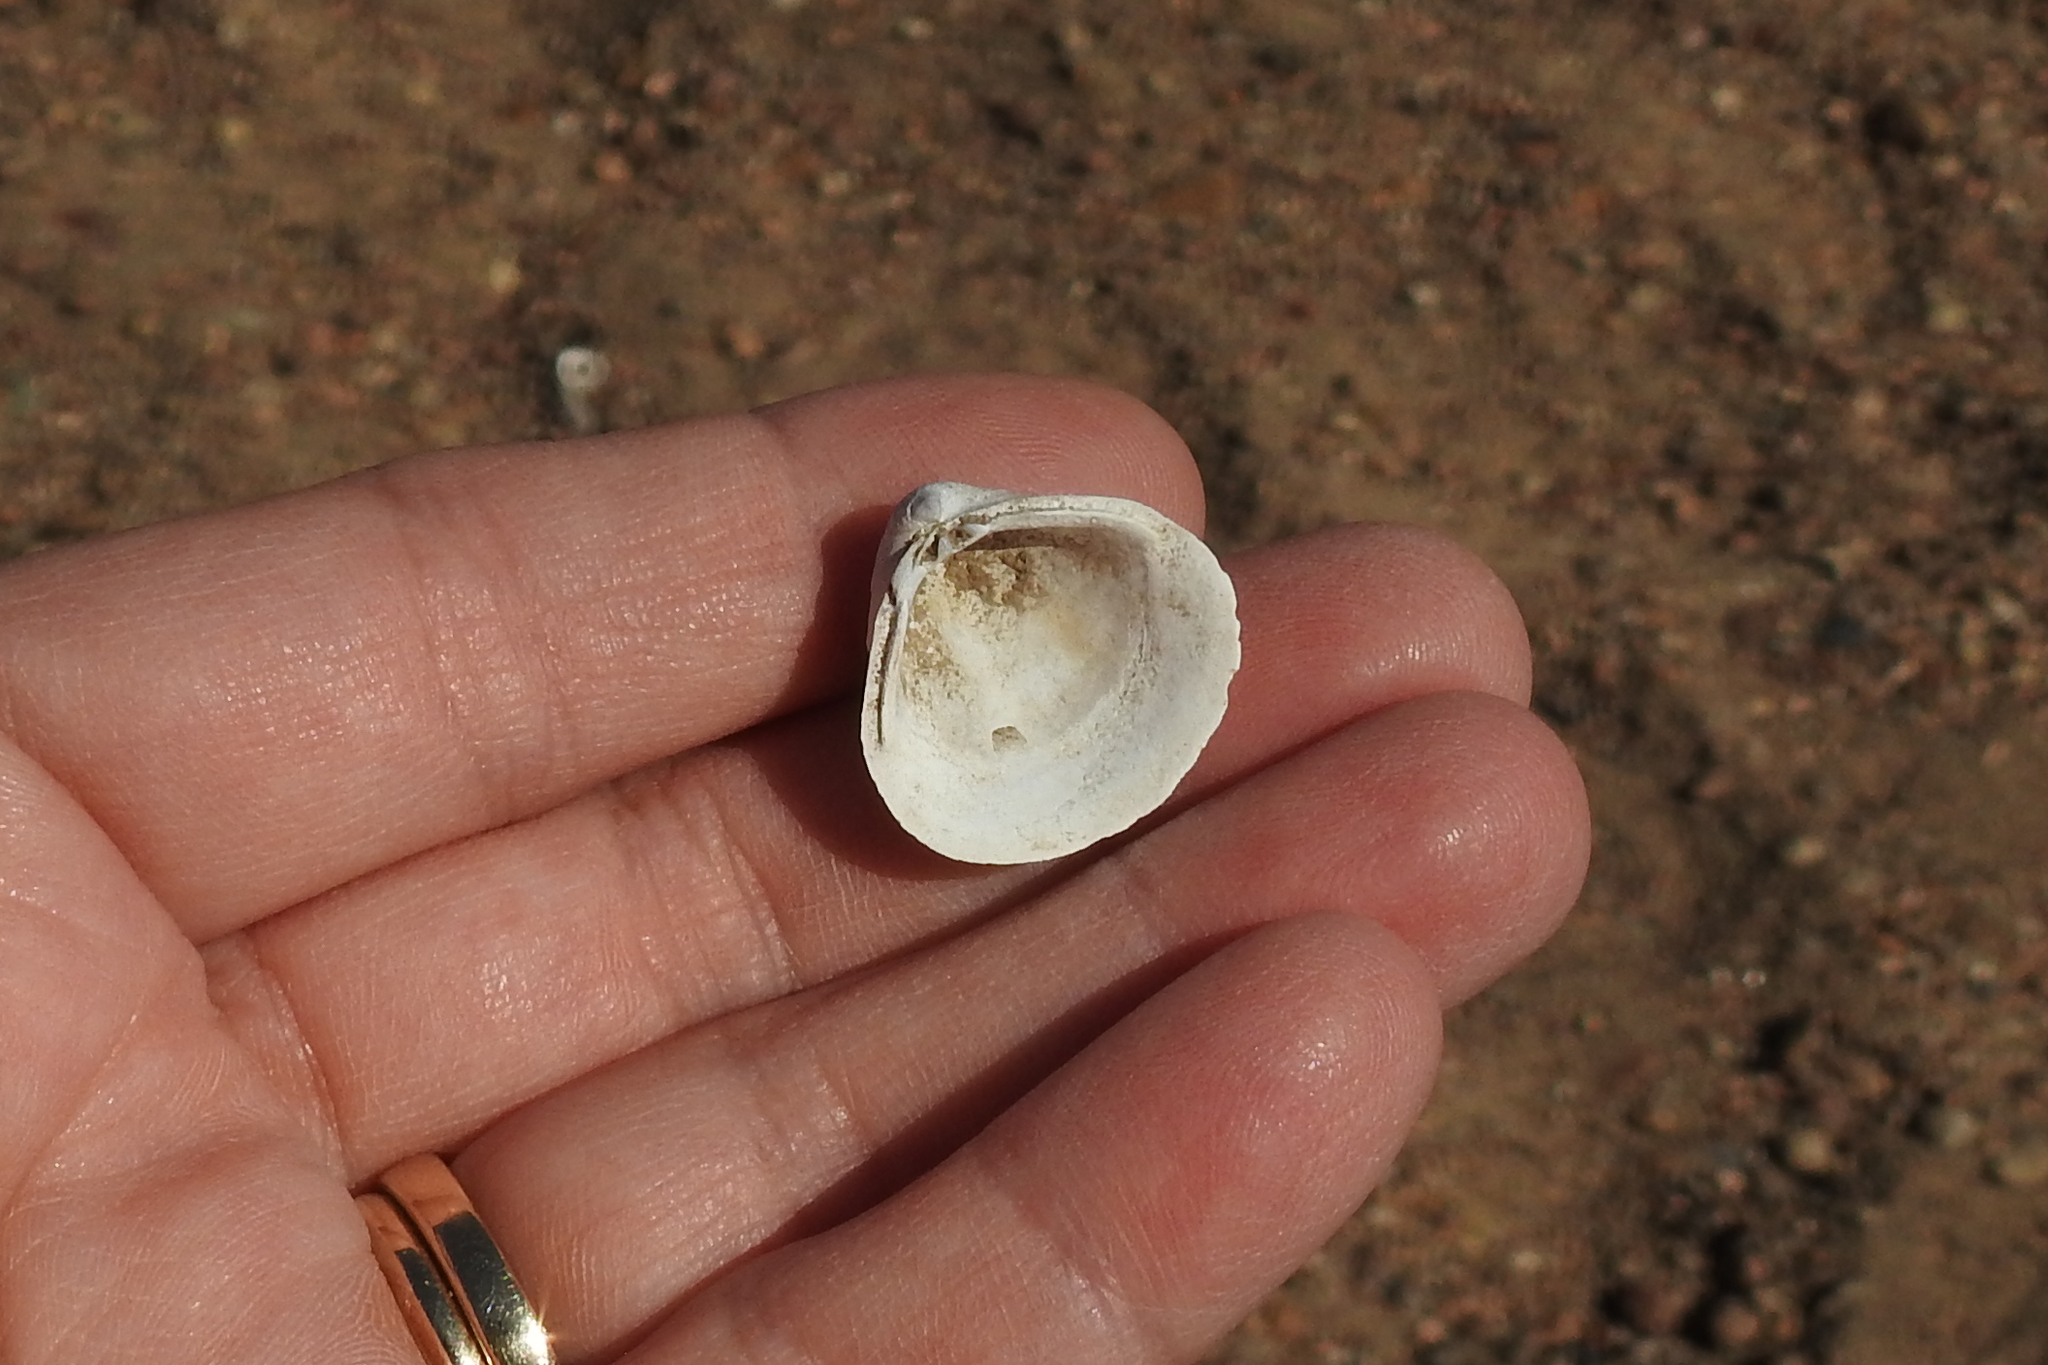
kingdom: Animalia
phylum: Mollusca
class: Bivalvia
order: Venerida
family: Cyrenidae
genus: Corbicula
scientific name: Corbicula fluminea
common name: Asian clam
